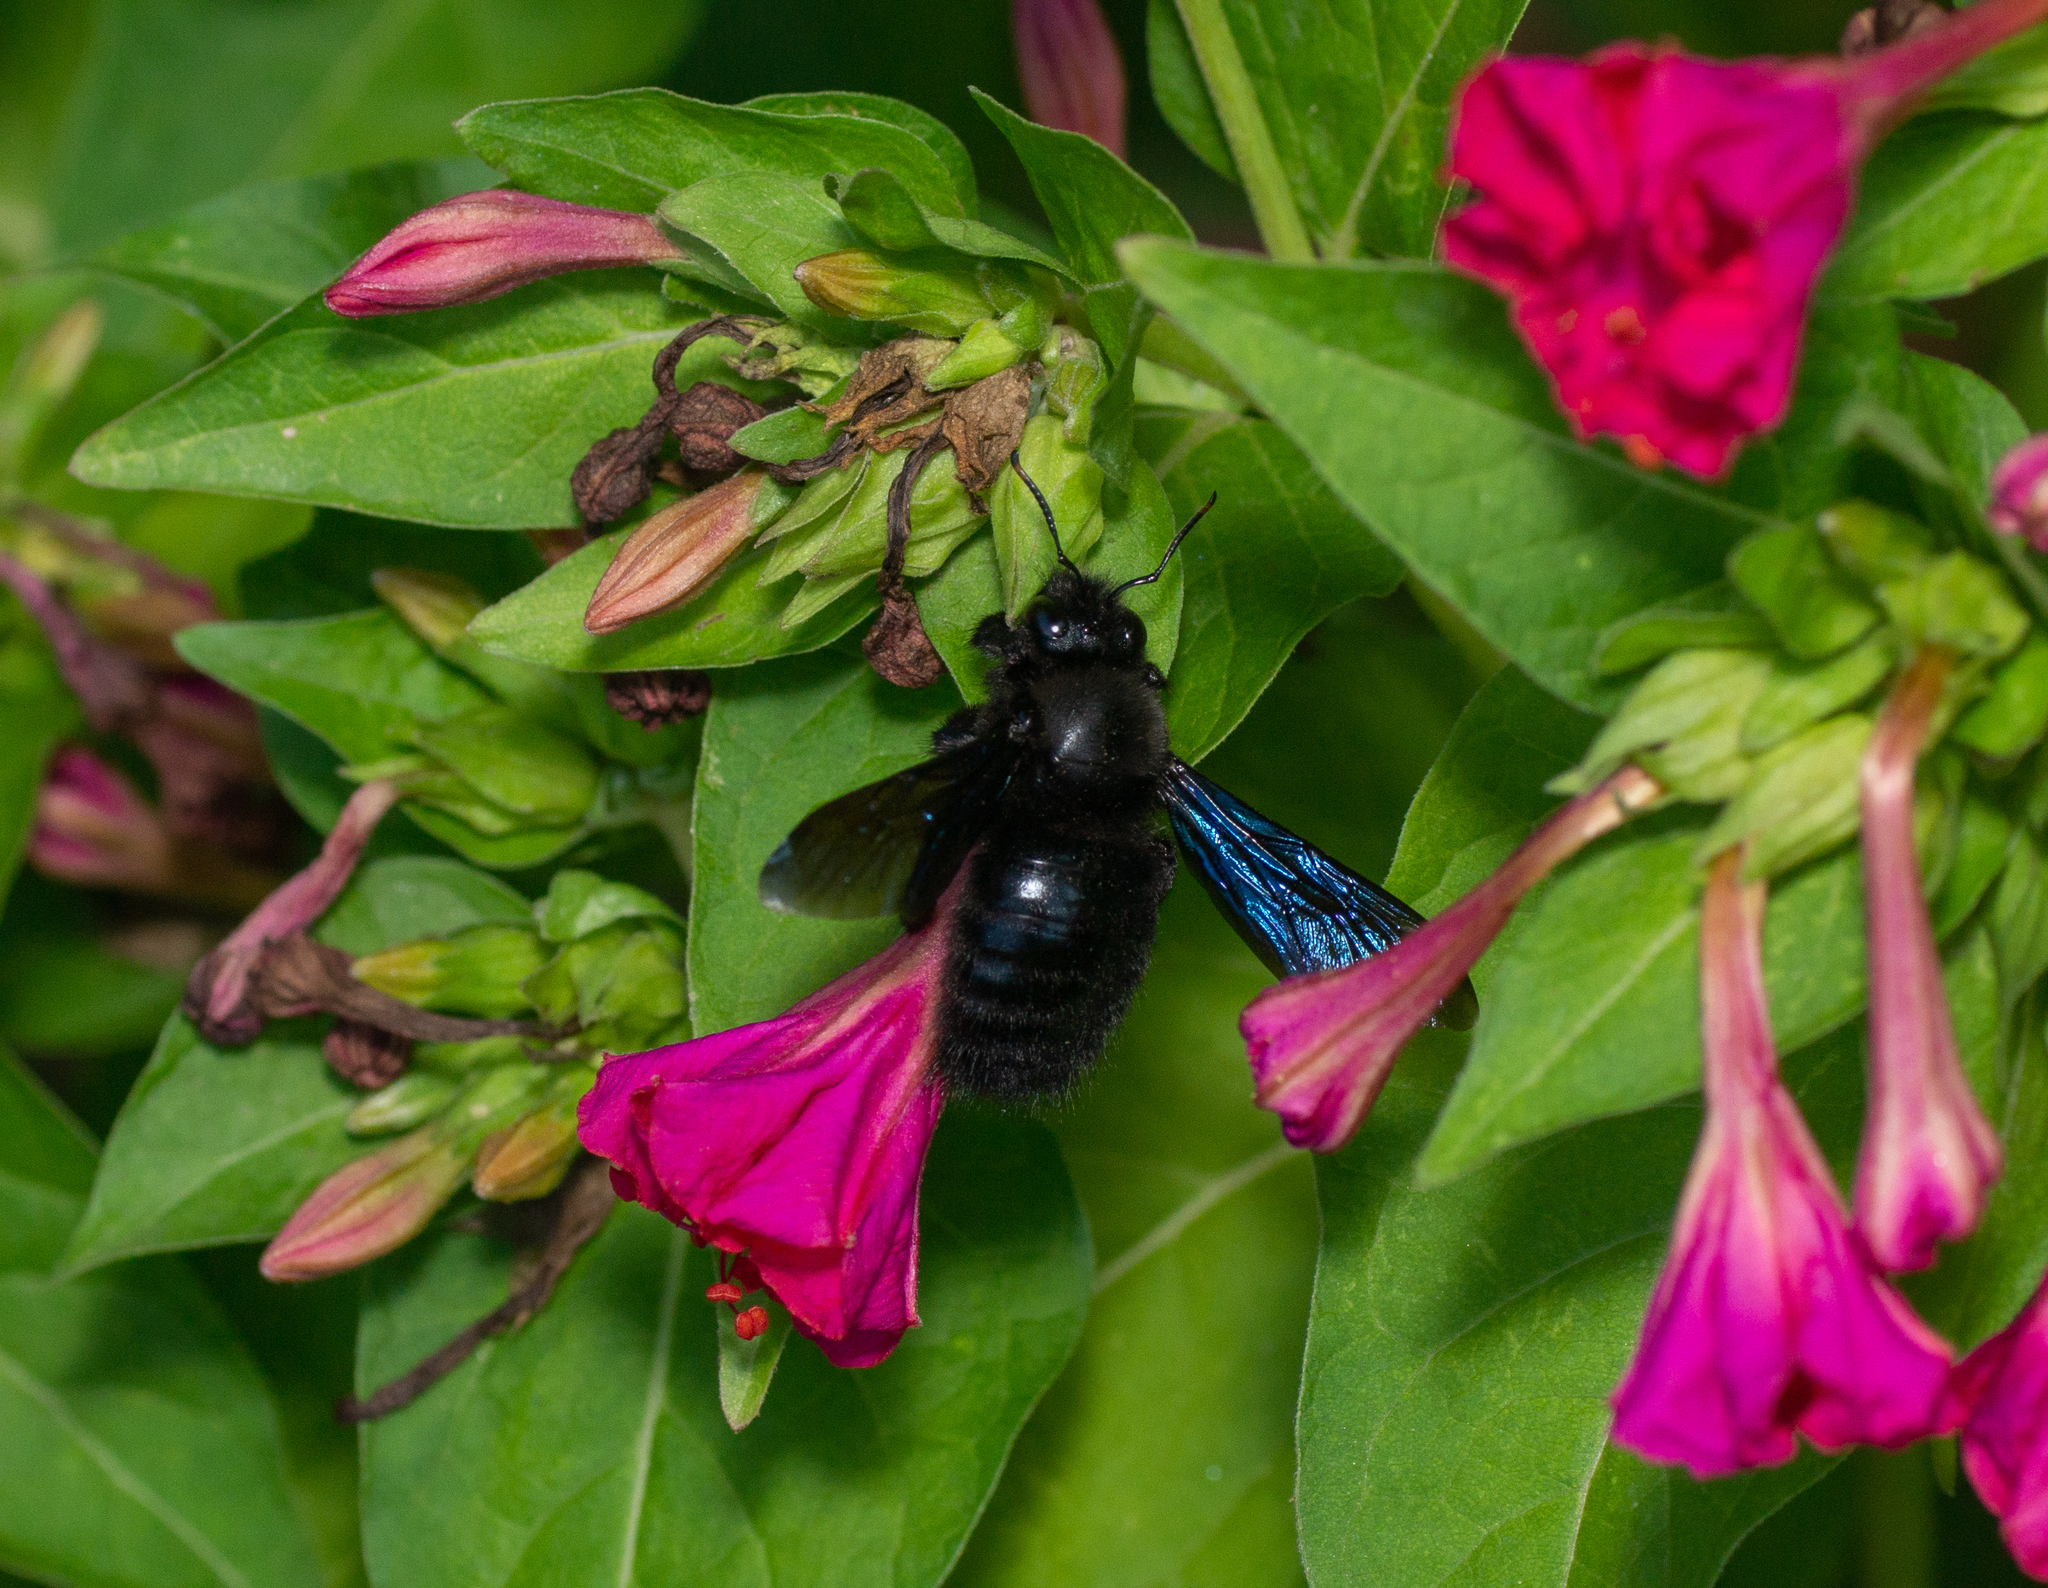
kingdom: Animalia
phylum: Arthropoda
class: Insecta
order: Hymenoptera
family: Apidae
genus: Xylocopa
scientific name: Xylocopa violacea
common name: Violet carpenter bee
